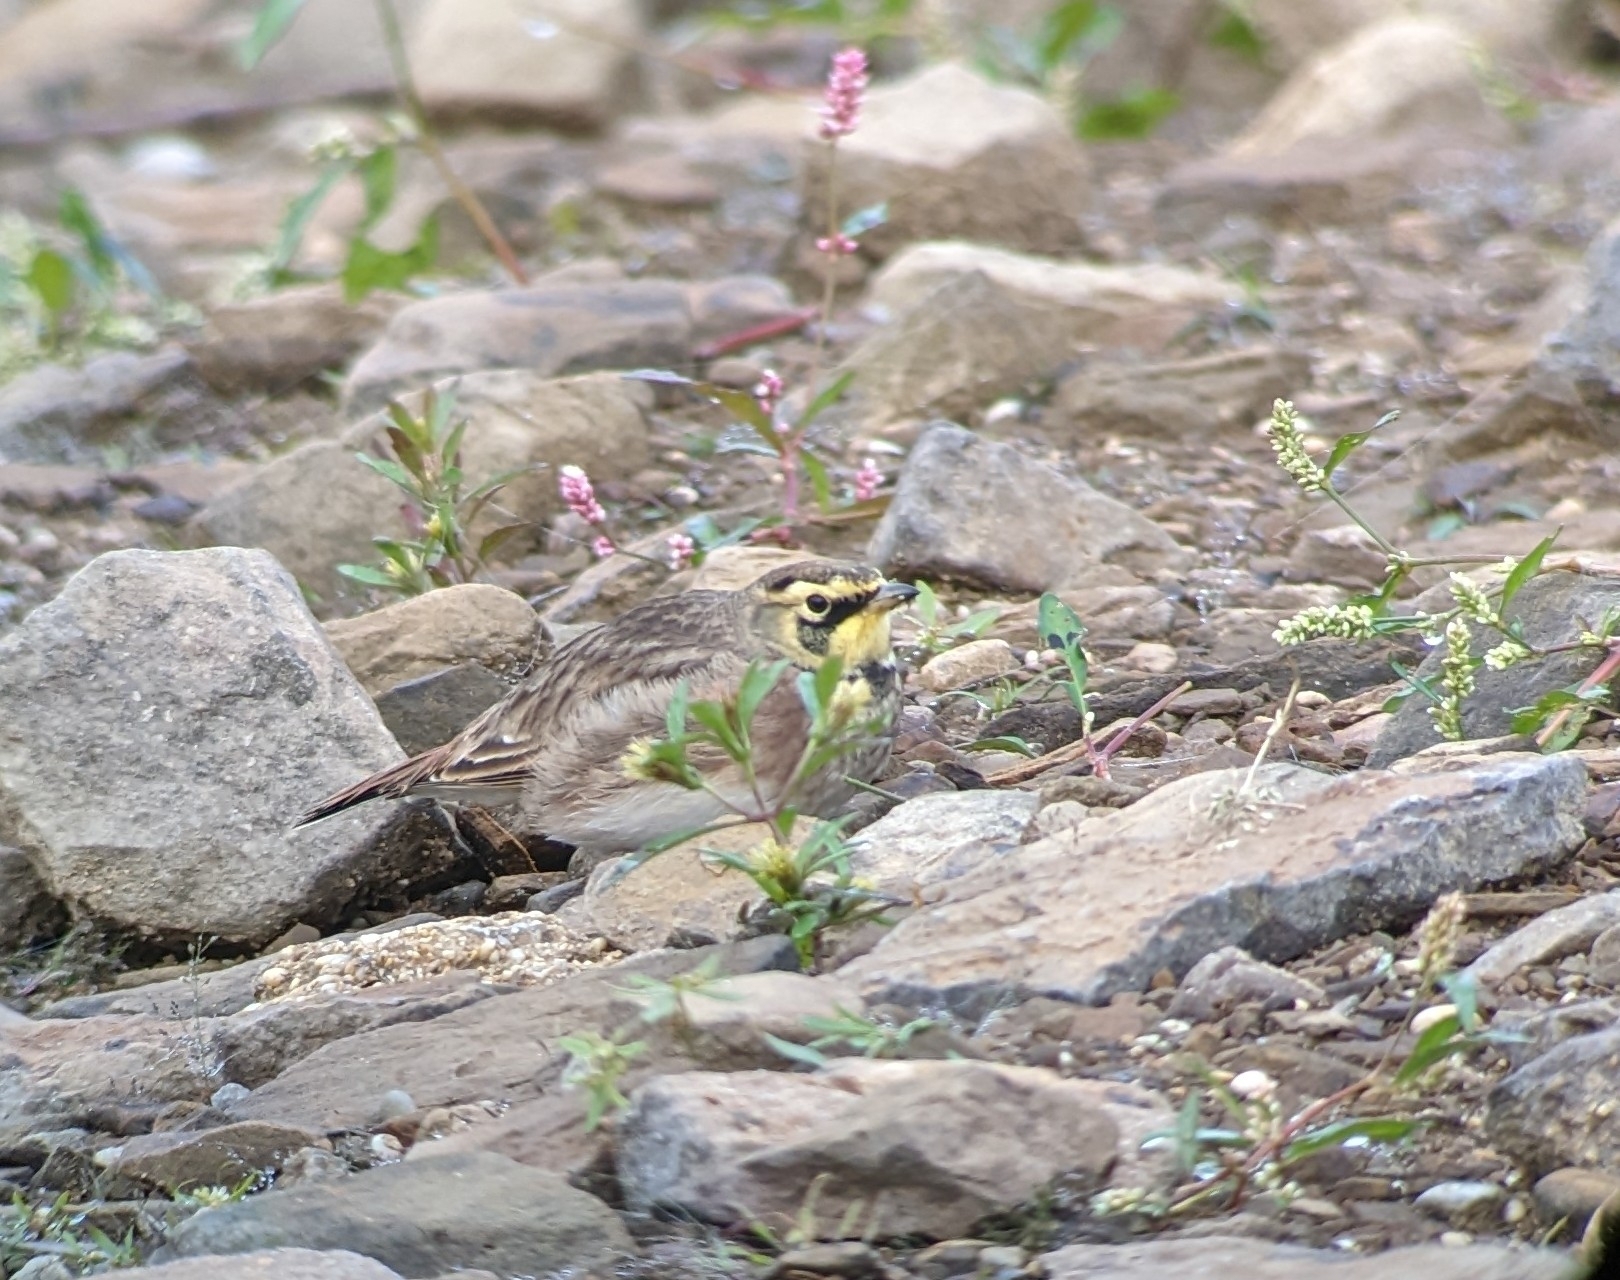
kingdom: Animalia
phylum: Chordata
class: Aves
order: Passeriformes
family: Alaudidae
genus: Eremophila
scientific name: Eremophila alpestris
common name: Horned lark
